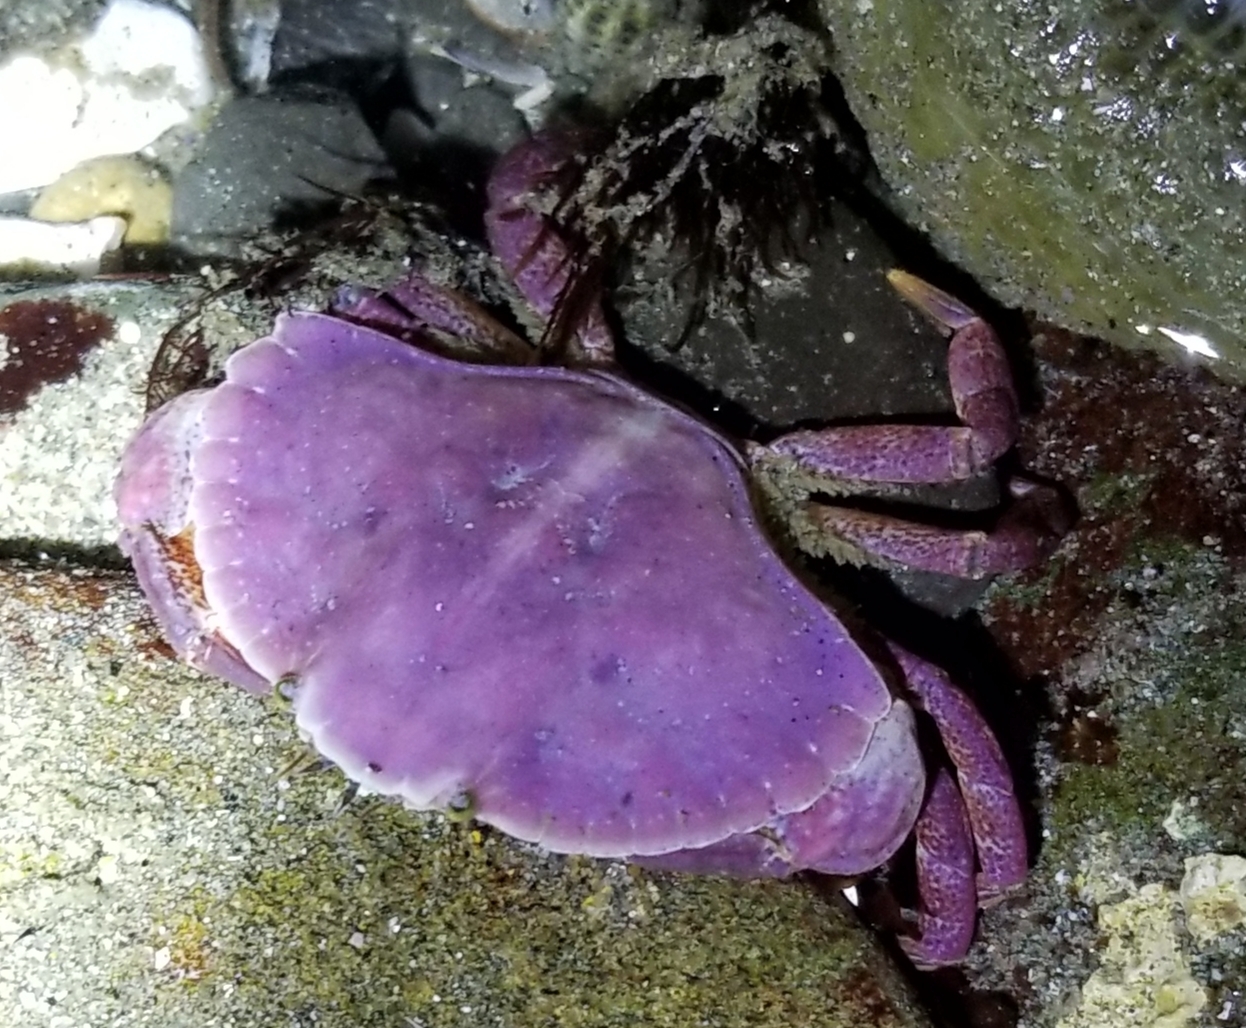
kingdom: Animalia
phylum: Arthropoda
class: Malacostraca
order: Decapoda
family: Cancridae
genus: Cancer
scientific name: Cancer productus
